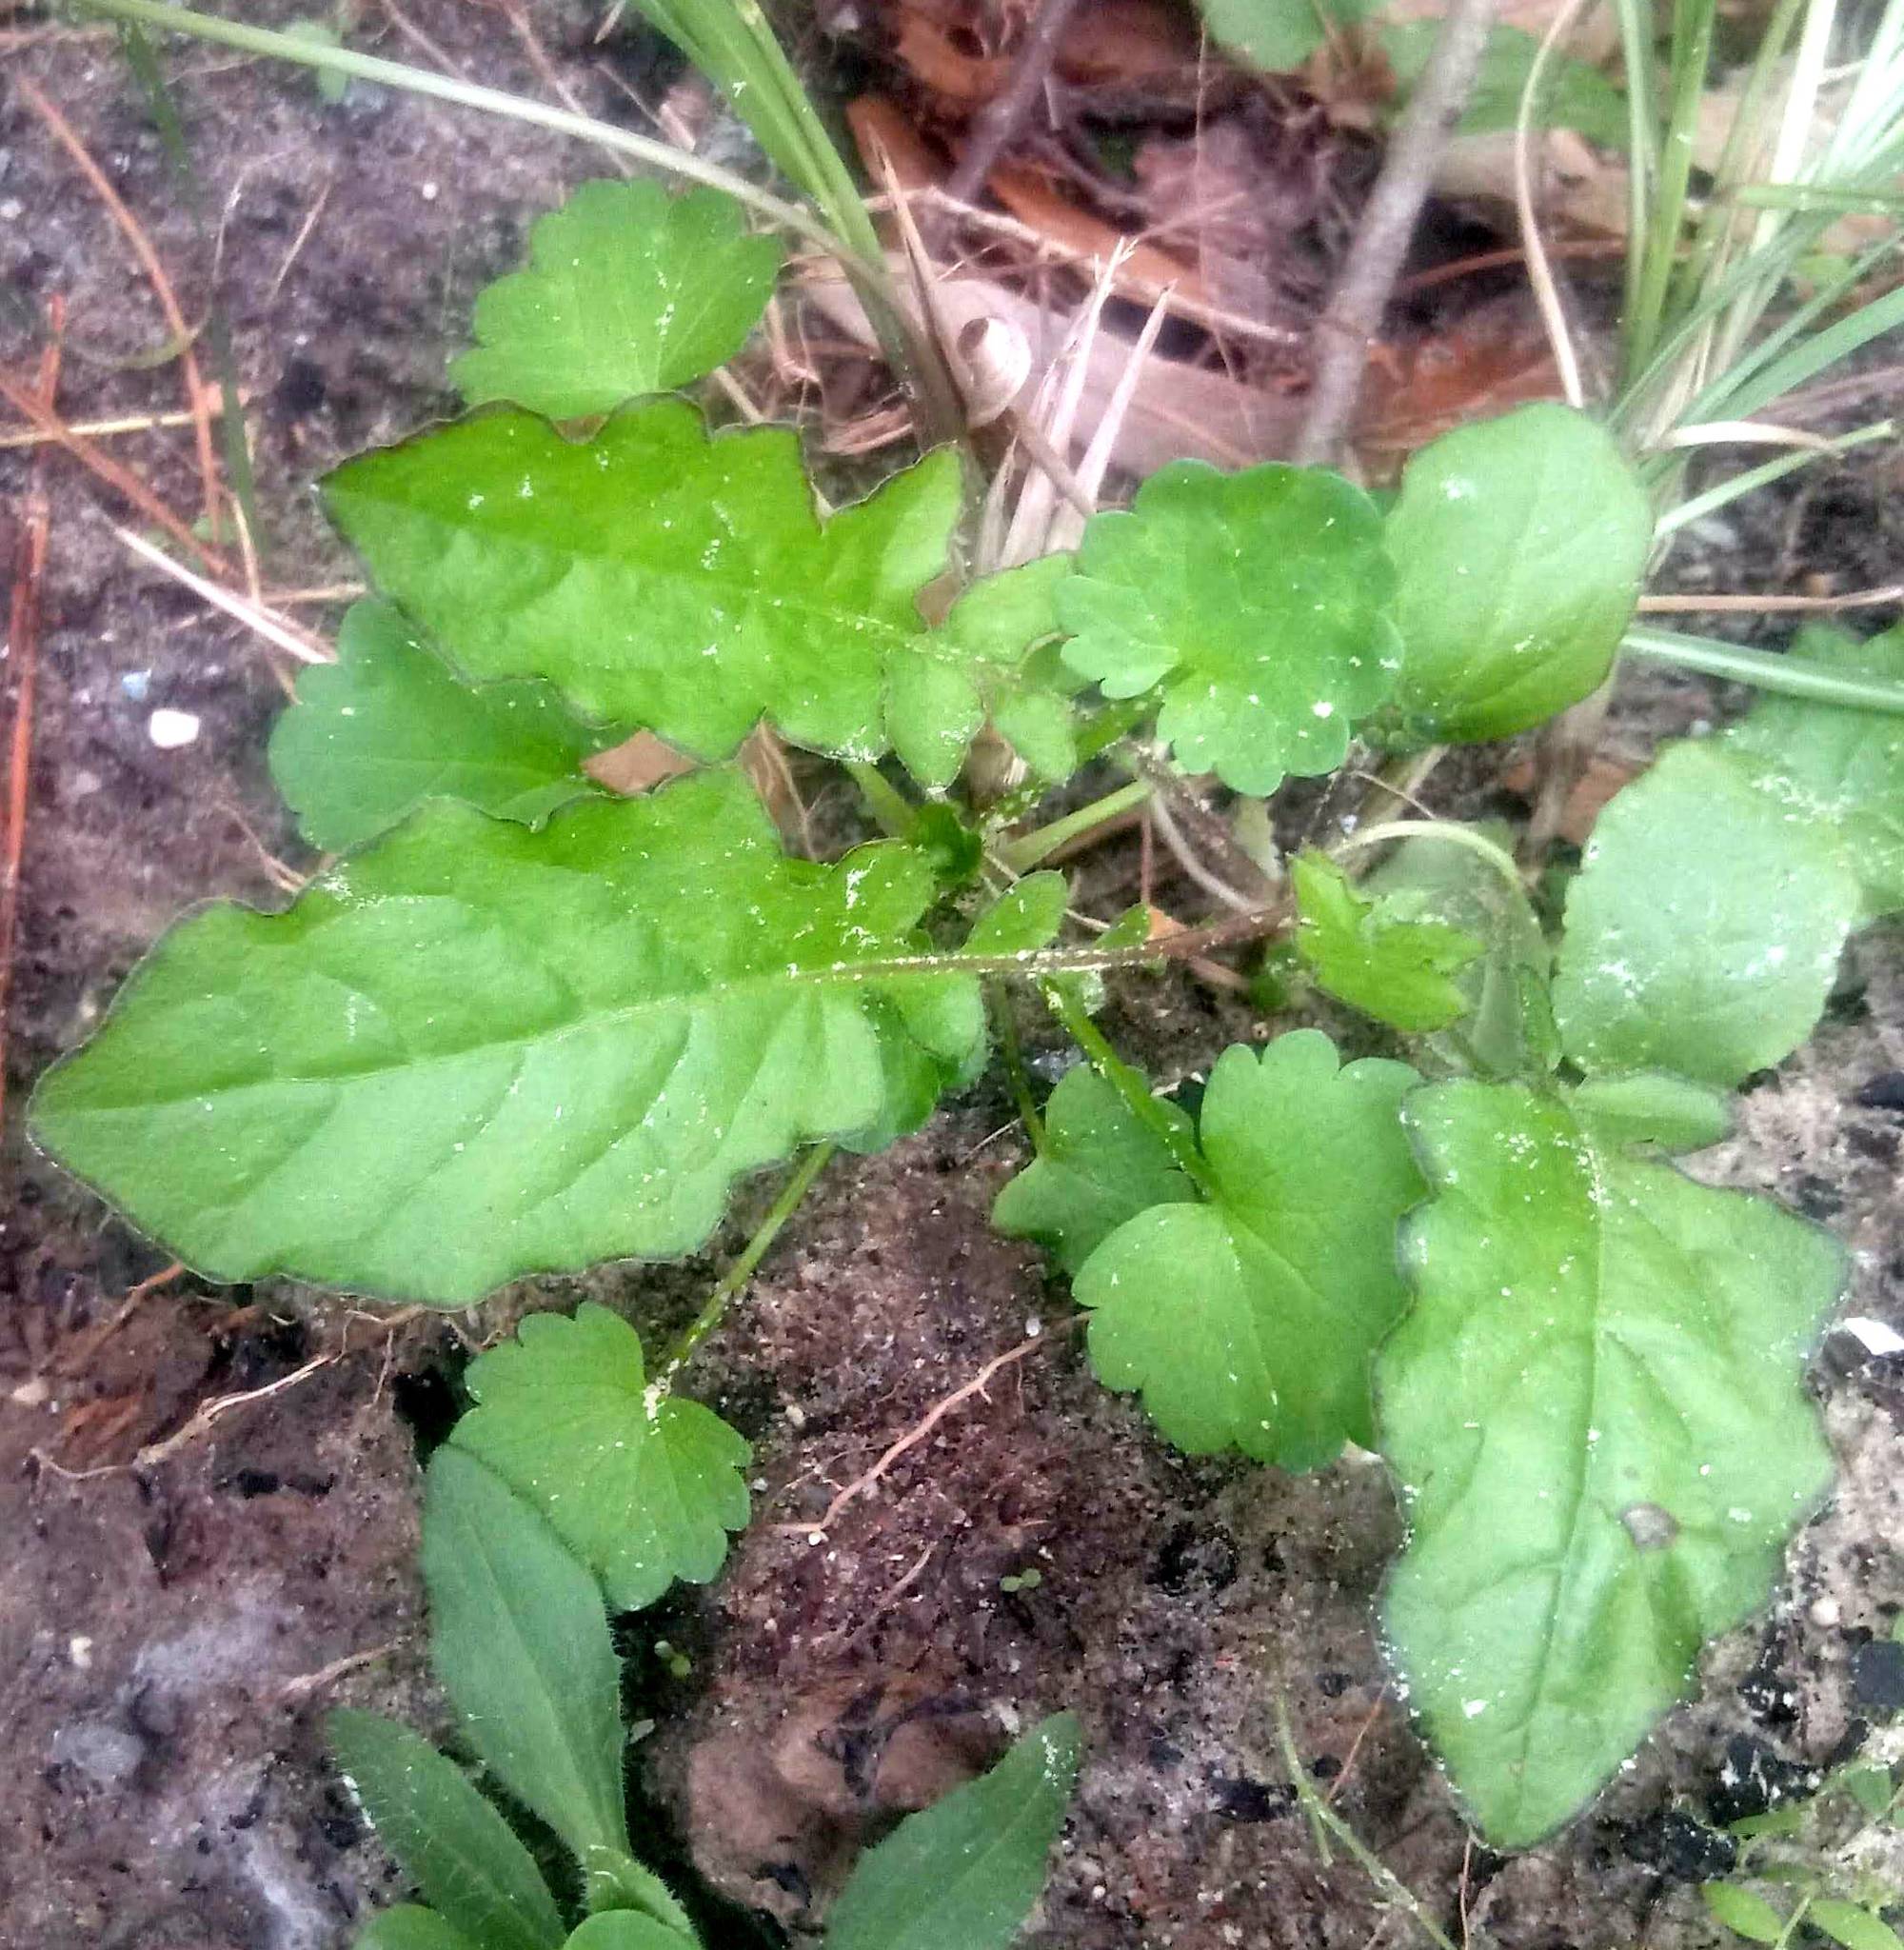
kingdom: Plantae
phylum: Tracheophyta
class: Magnoliopsida
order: Asterales
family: Asteraceae
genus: Youngia
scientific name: Youngia japonica
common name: Oriental false hawksbeard
